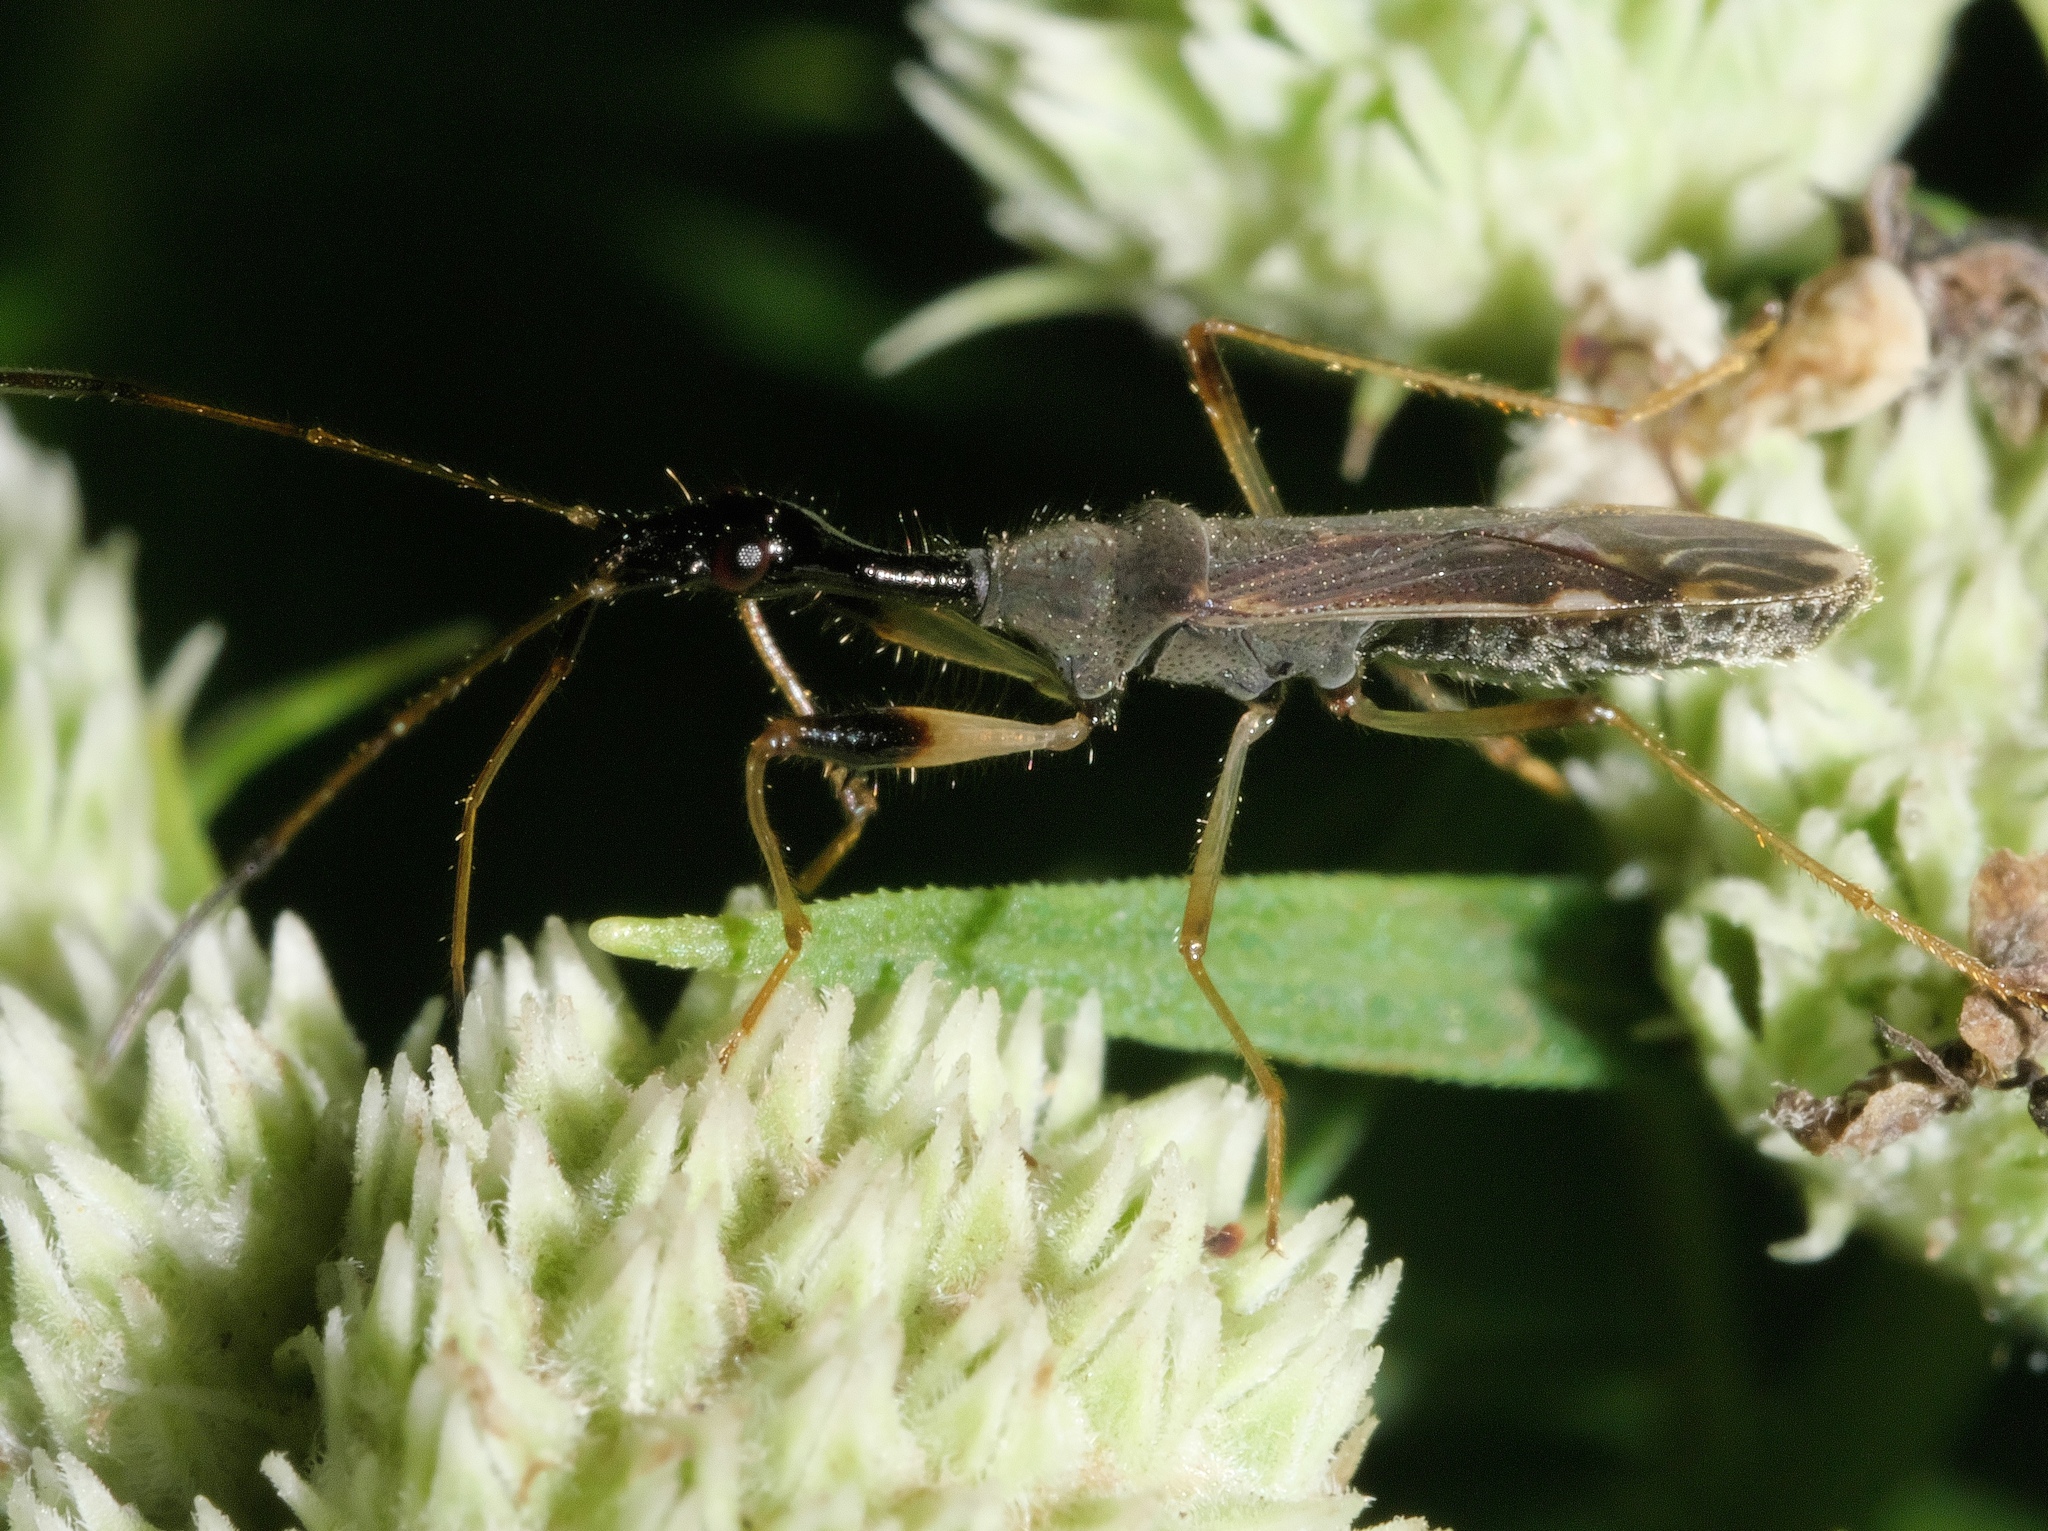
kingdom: Animalia
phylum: Arthropoda
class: Insecta
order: Hemiptera
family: Rhyparochromidae
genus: Myodocha
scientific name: Myodocha serripes
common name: Long-necked seed bug
